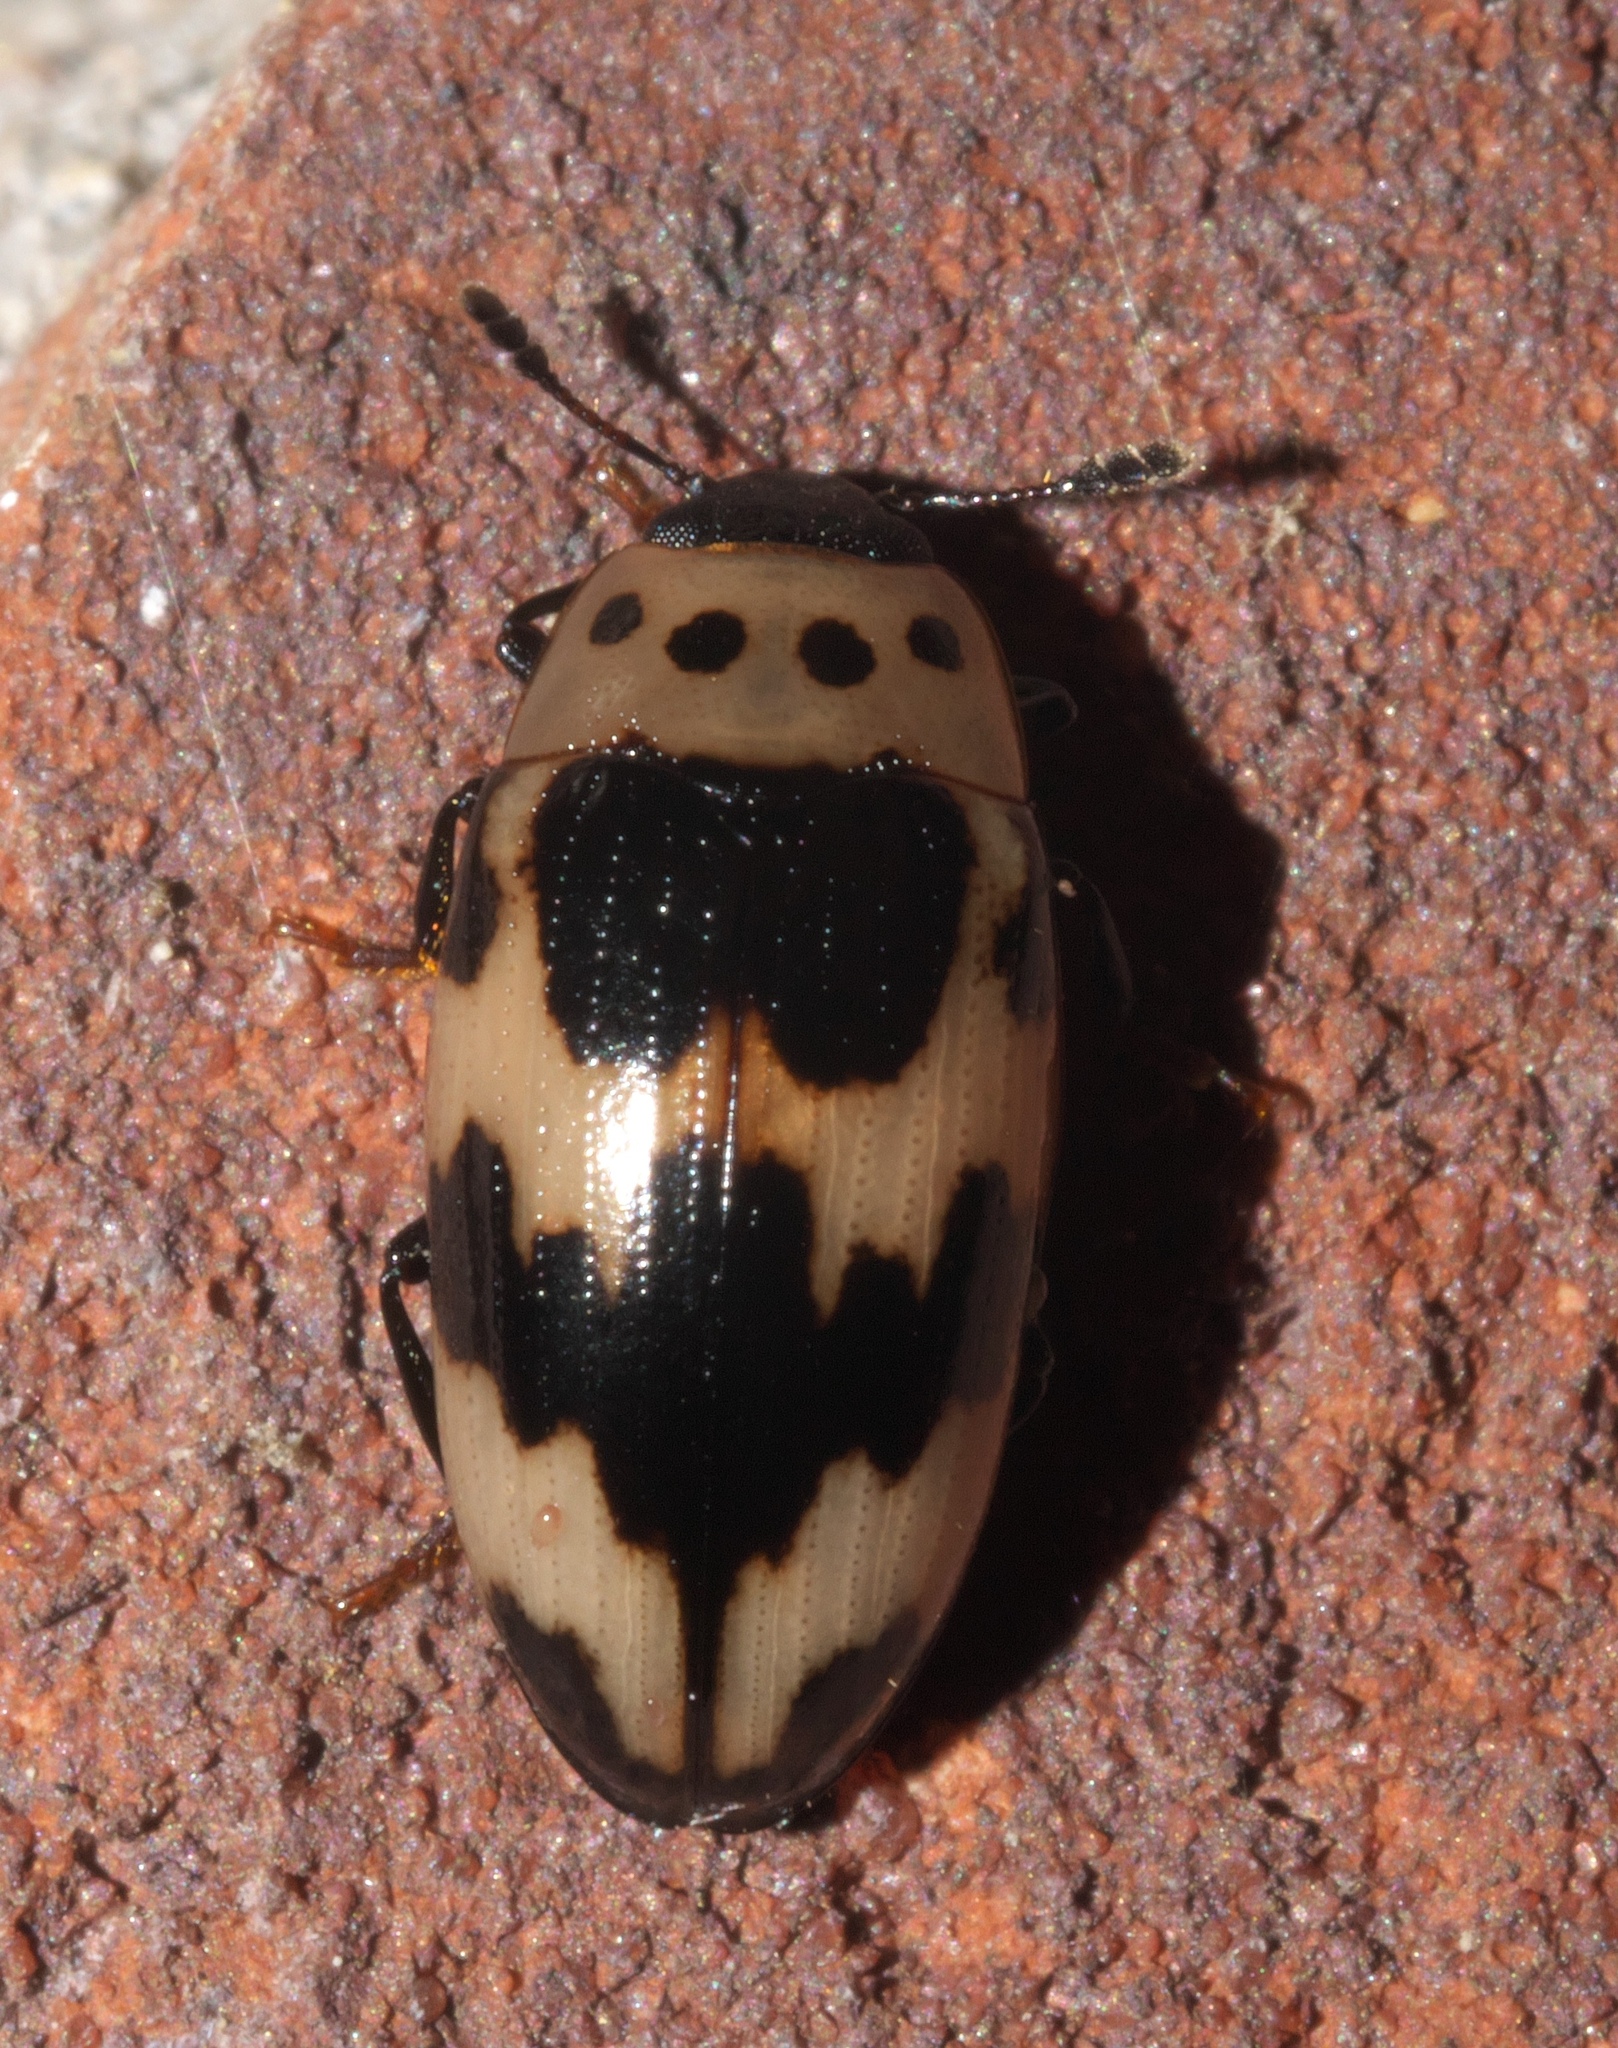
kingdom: Animalia
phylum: Arthropoda
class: Insecta
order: Coleoptera
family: Erotylidae
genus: Ischyrus
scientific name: Ischyrus quadripunctatus
